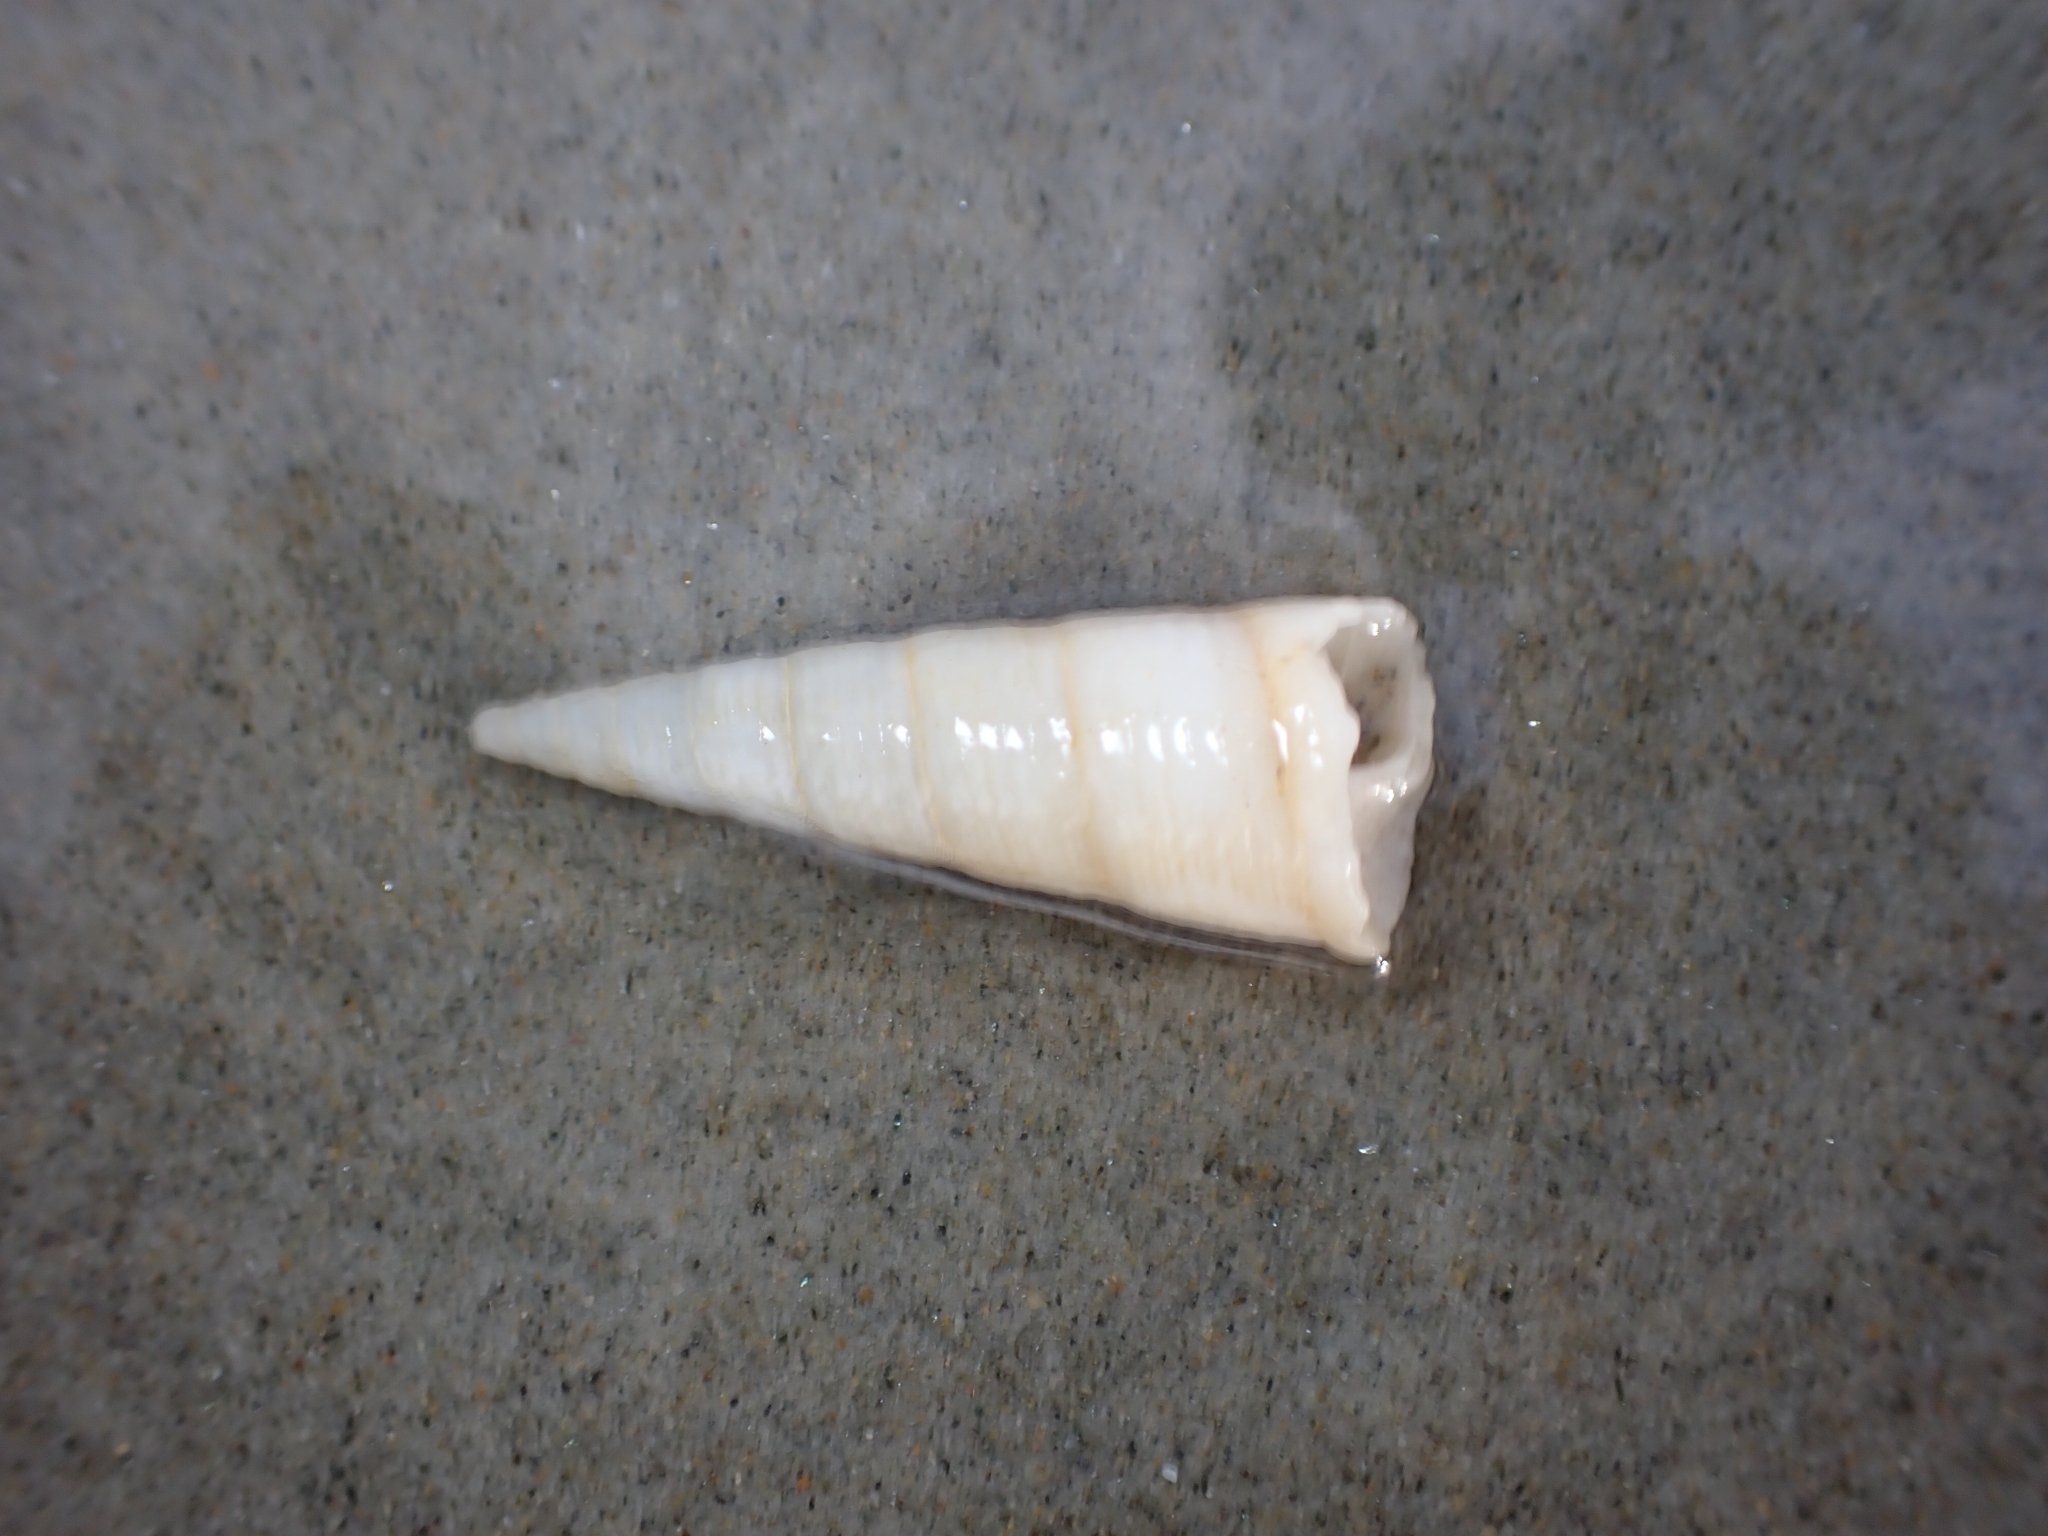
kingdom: Animalia
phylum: Mollusca
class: Gastropoda
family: Turritellidae
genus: Maoricolpus
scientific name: Maoricolpus roseus
